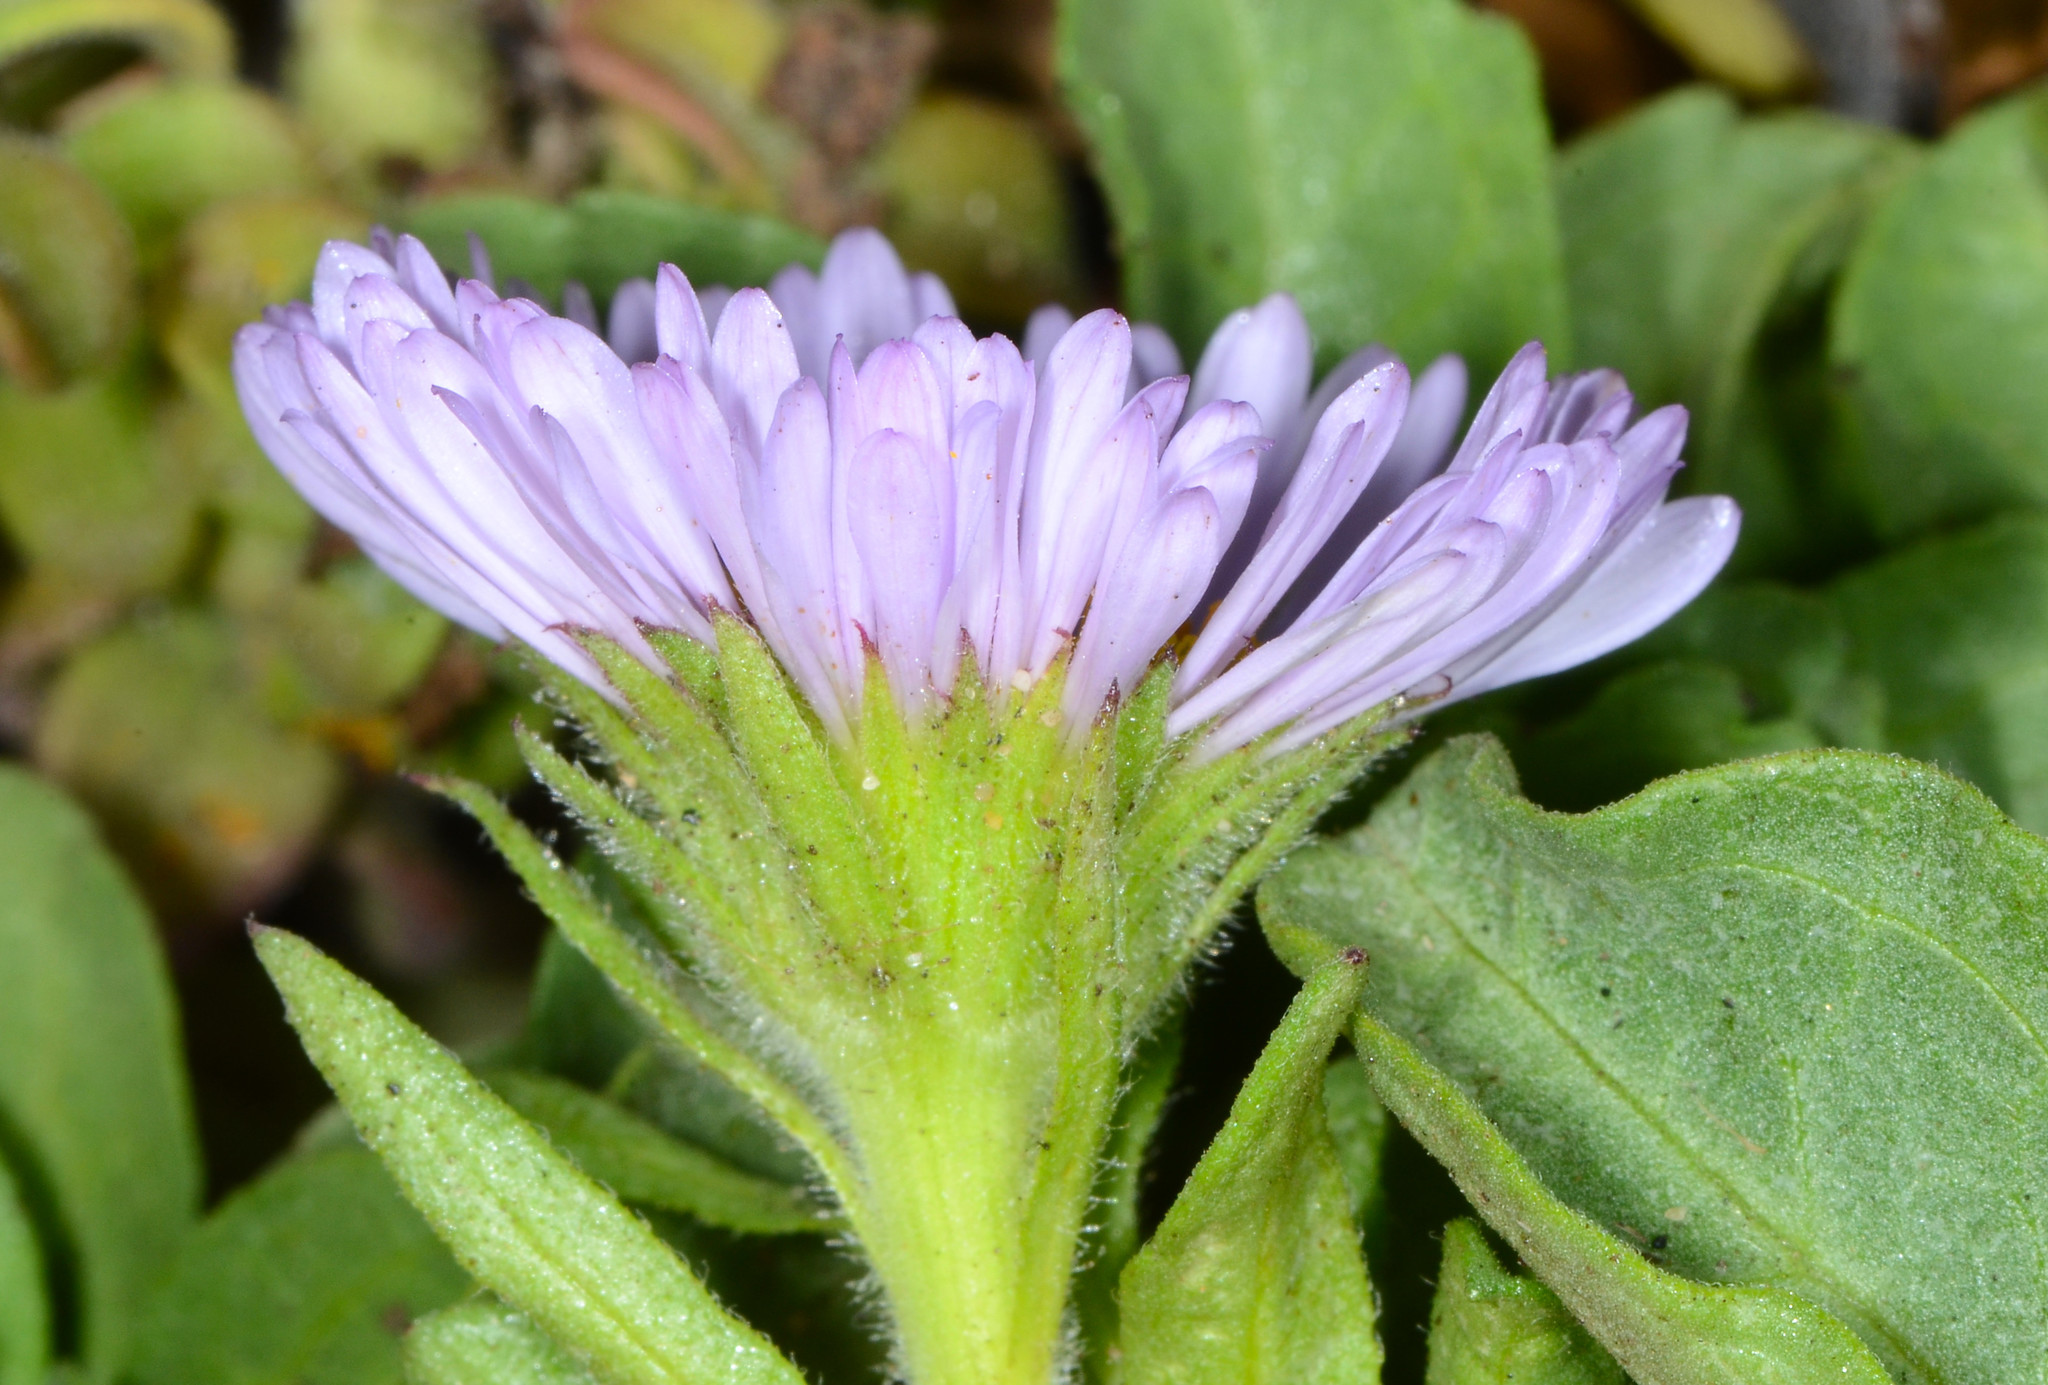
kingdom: Plantae
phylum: Tracheophyta
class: Magnoliopsida
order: Asterales
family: Asteraceae
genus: Erigeron
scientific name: Erigeron glaucus
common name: Seaside daisy
